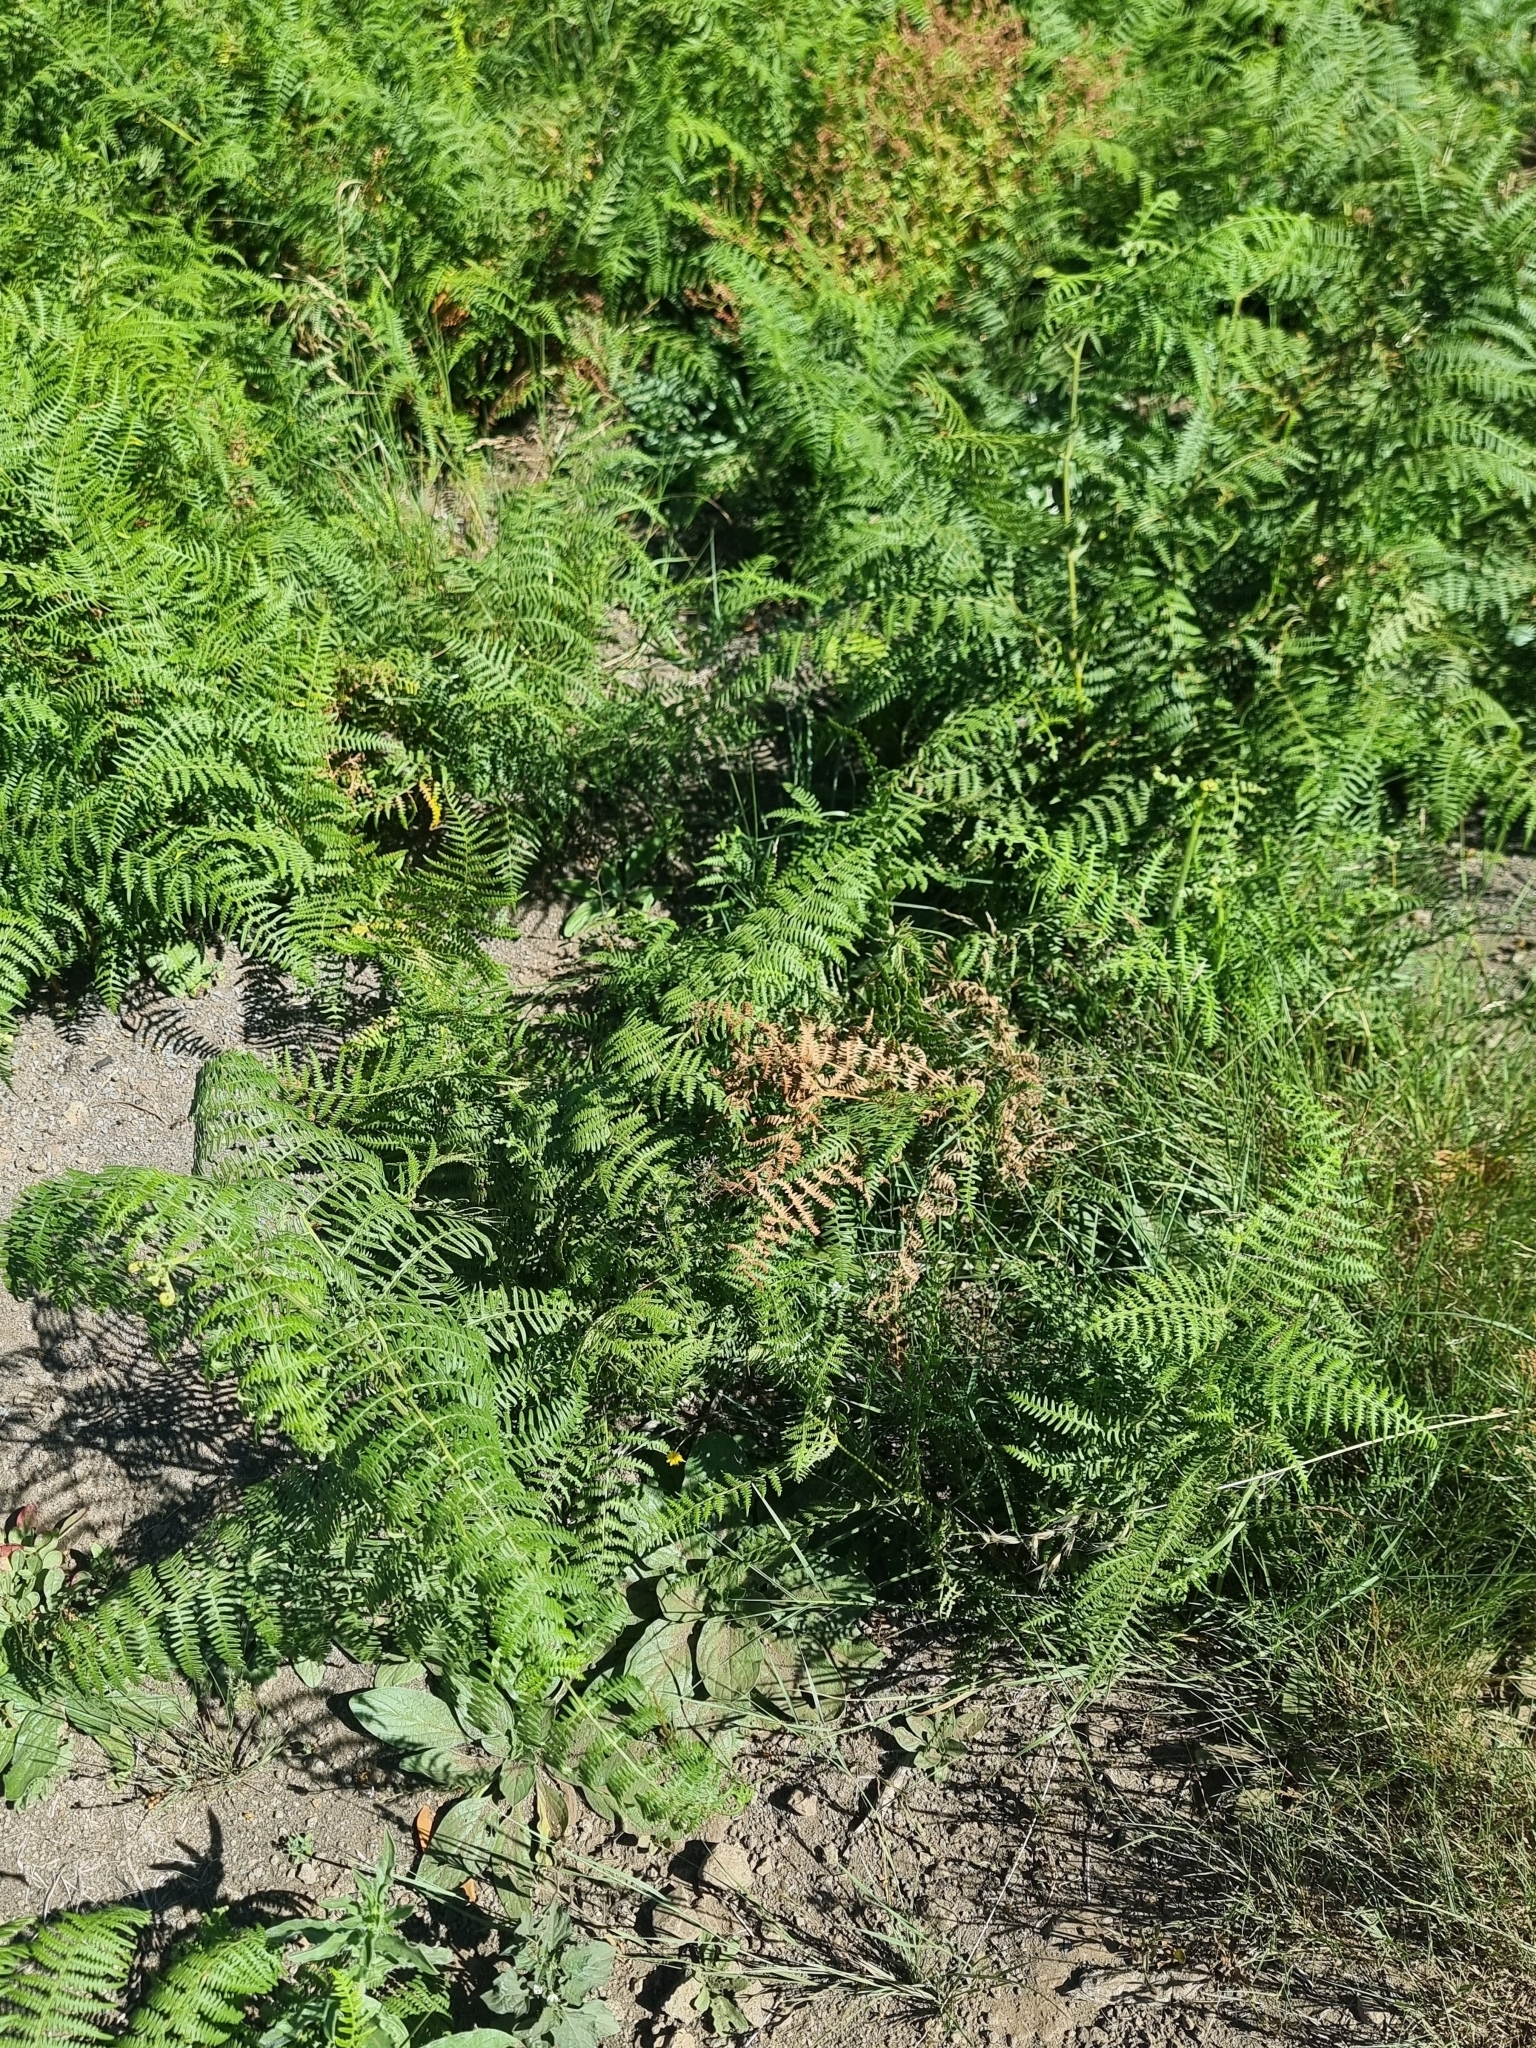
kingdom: Plantae
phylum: Tracheophyta
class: Polypodiopsida
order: Polypodiales
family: Dennstaedtiaceae
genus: Pteridium
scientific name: Pteridium aquilinum
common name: Bracken
